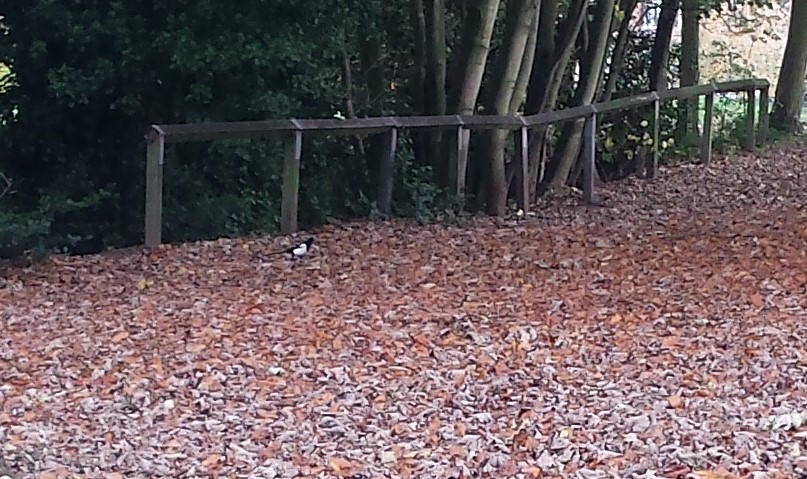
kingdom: Animalia
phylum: Chordata
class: Aves
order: Passeriformes
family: Corvidae
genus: Pica
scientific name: Pica pica
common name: Eurasian magpie
